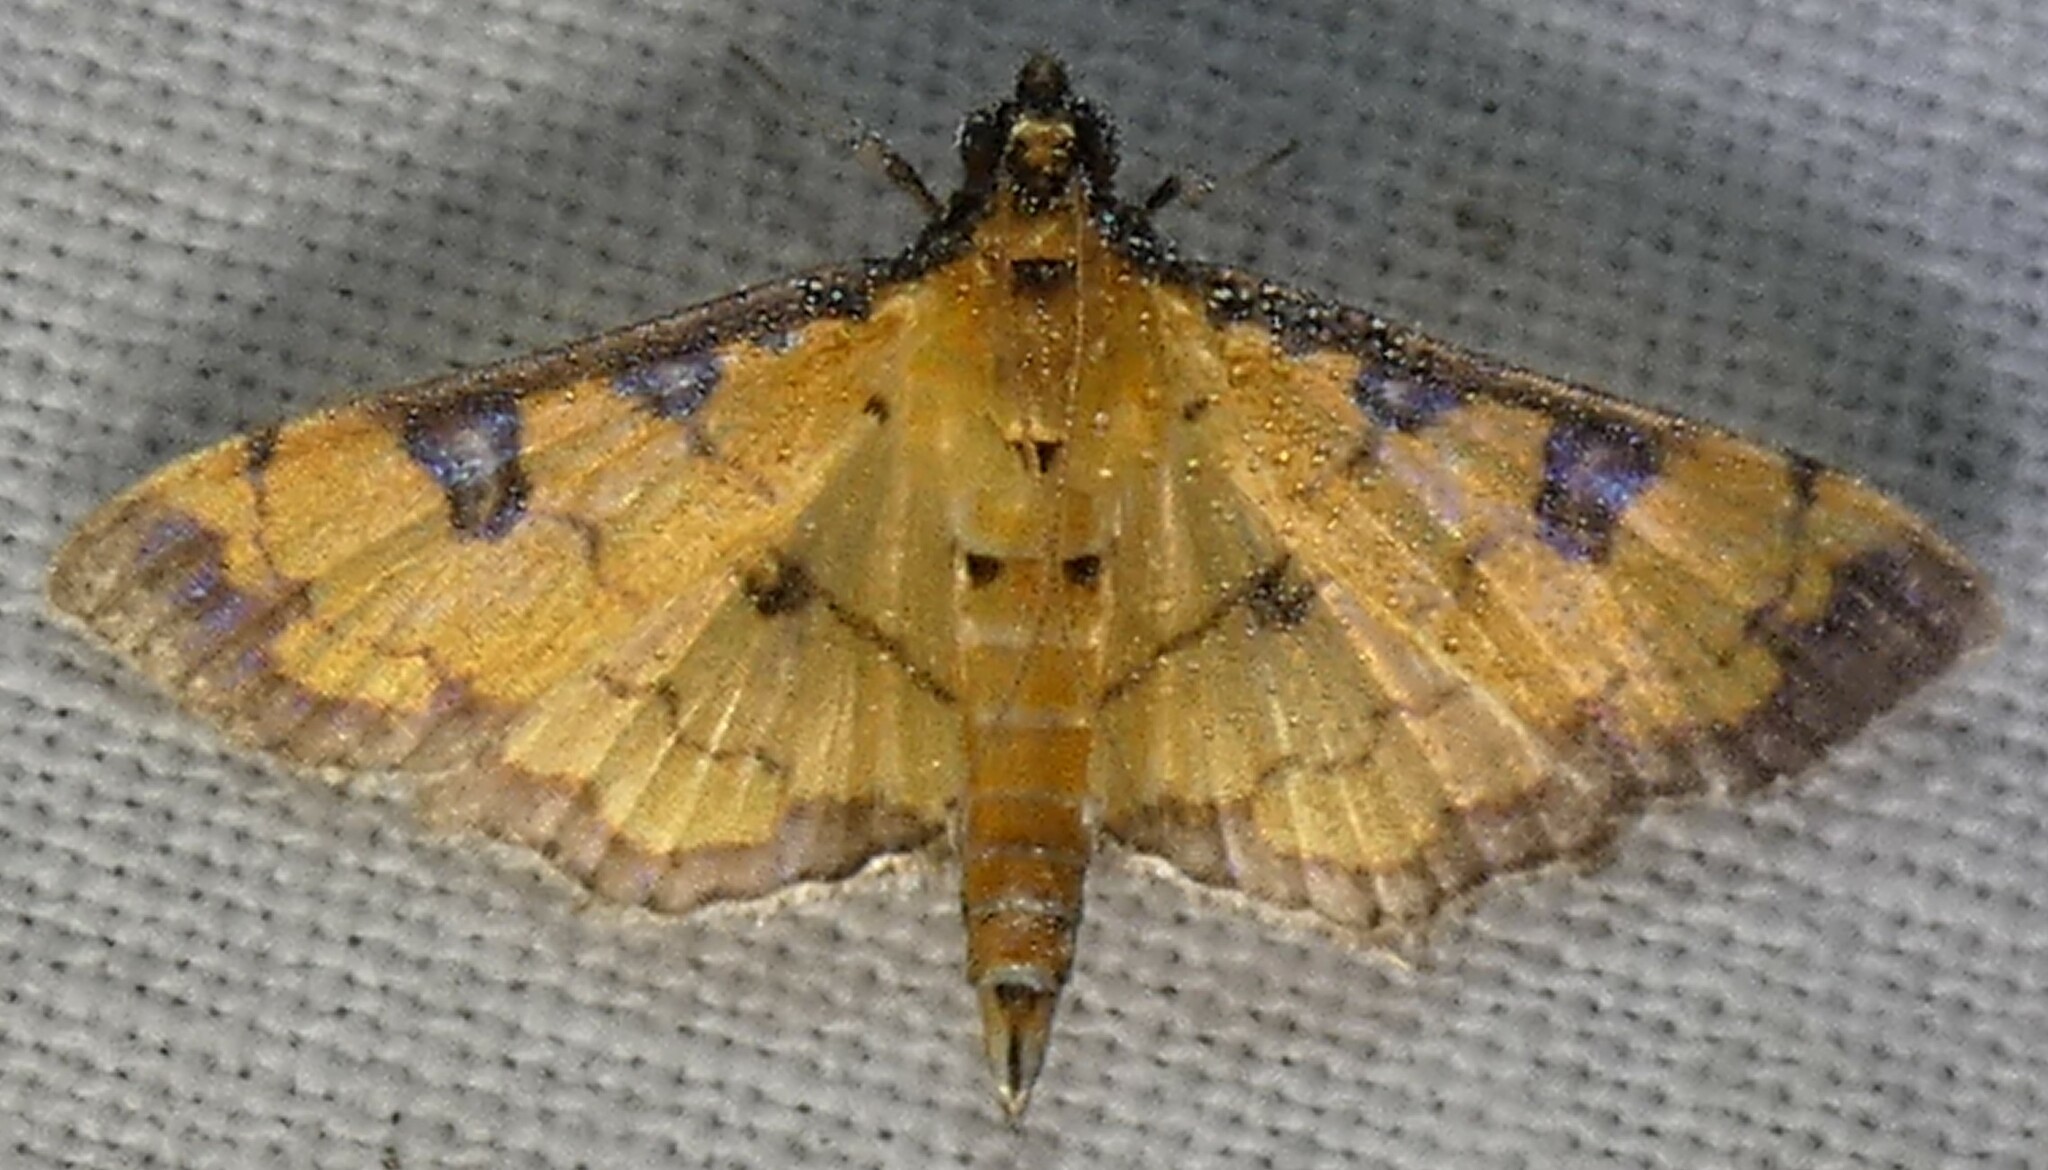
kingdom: Animalia
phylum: Arthropoda
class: Insecta
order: Lepidoptera
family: Crambidae
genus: Ategumia
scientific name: Ategumia ebulealis
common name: Moth
